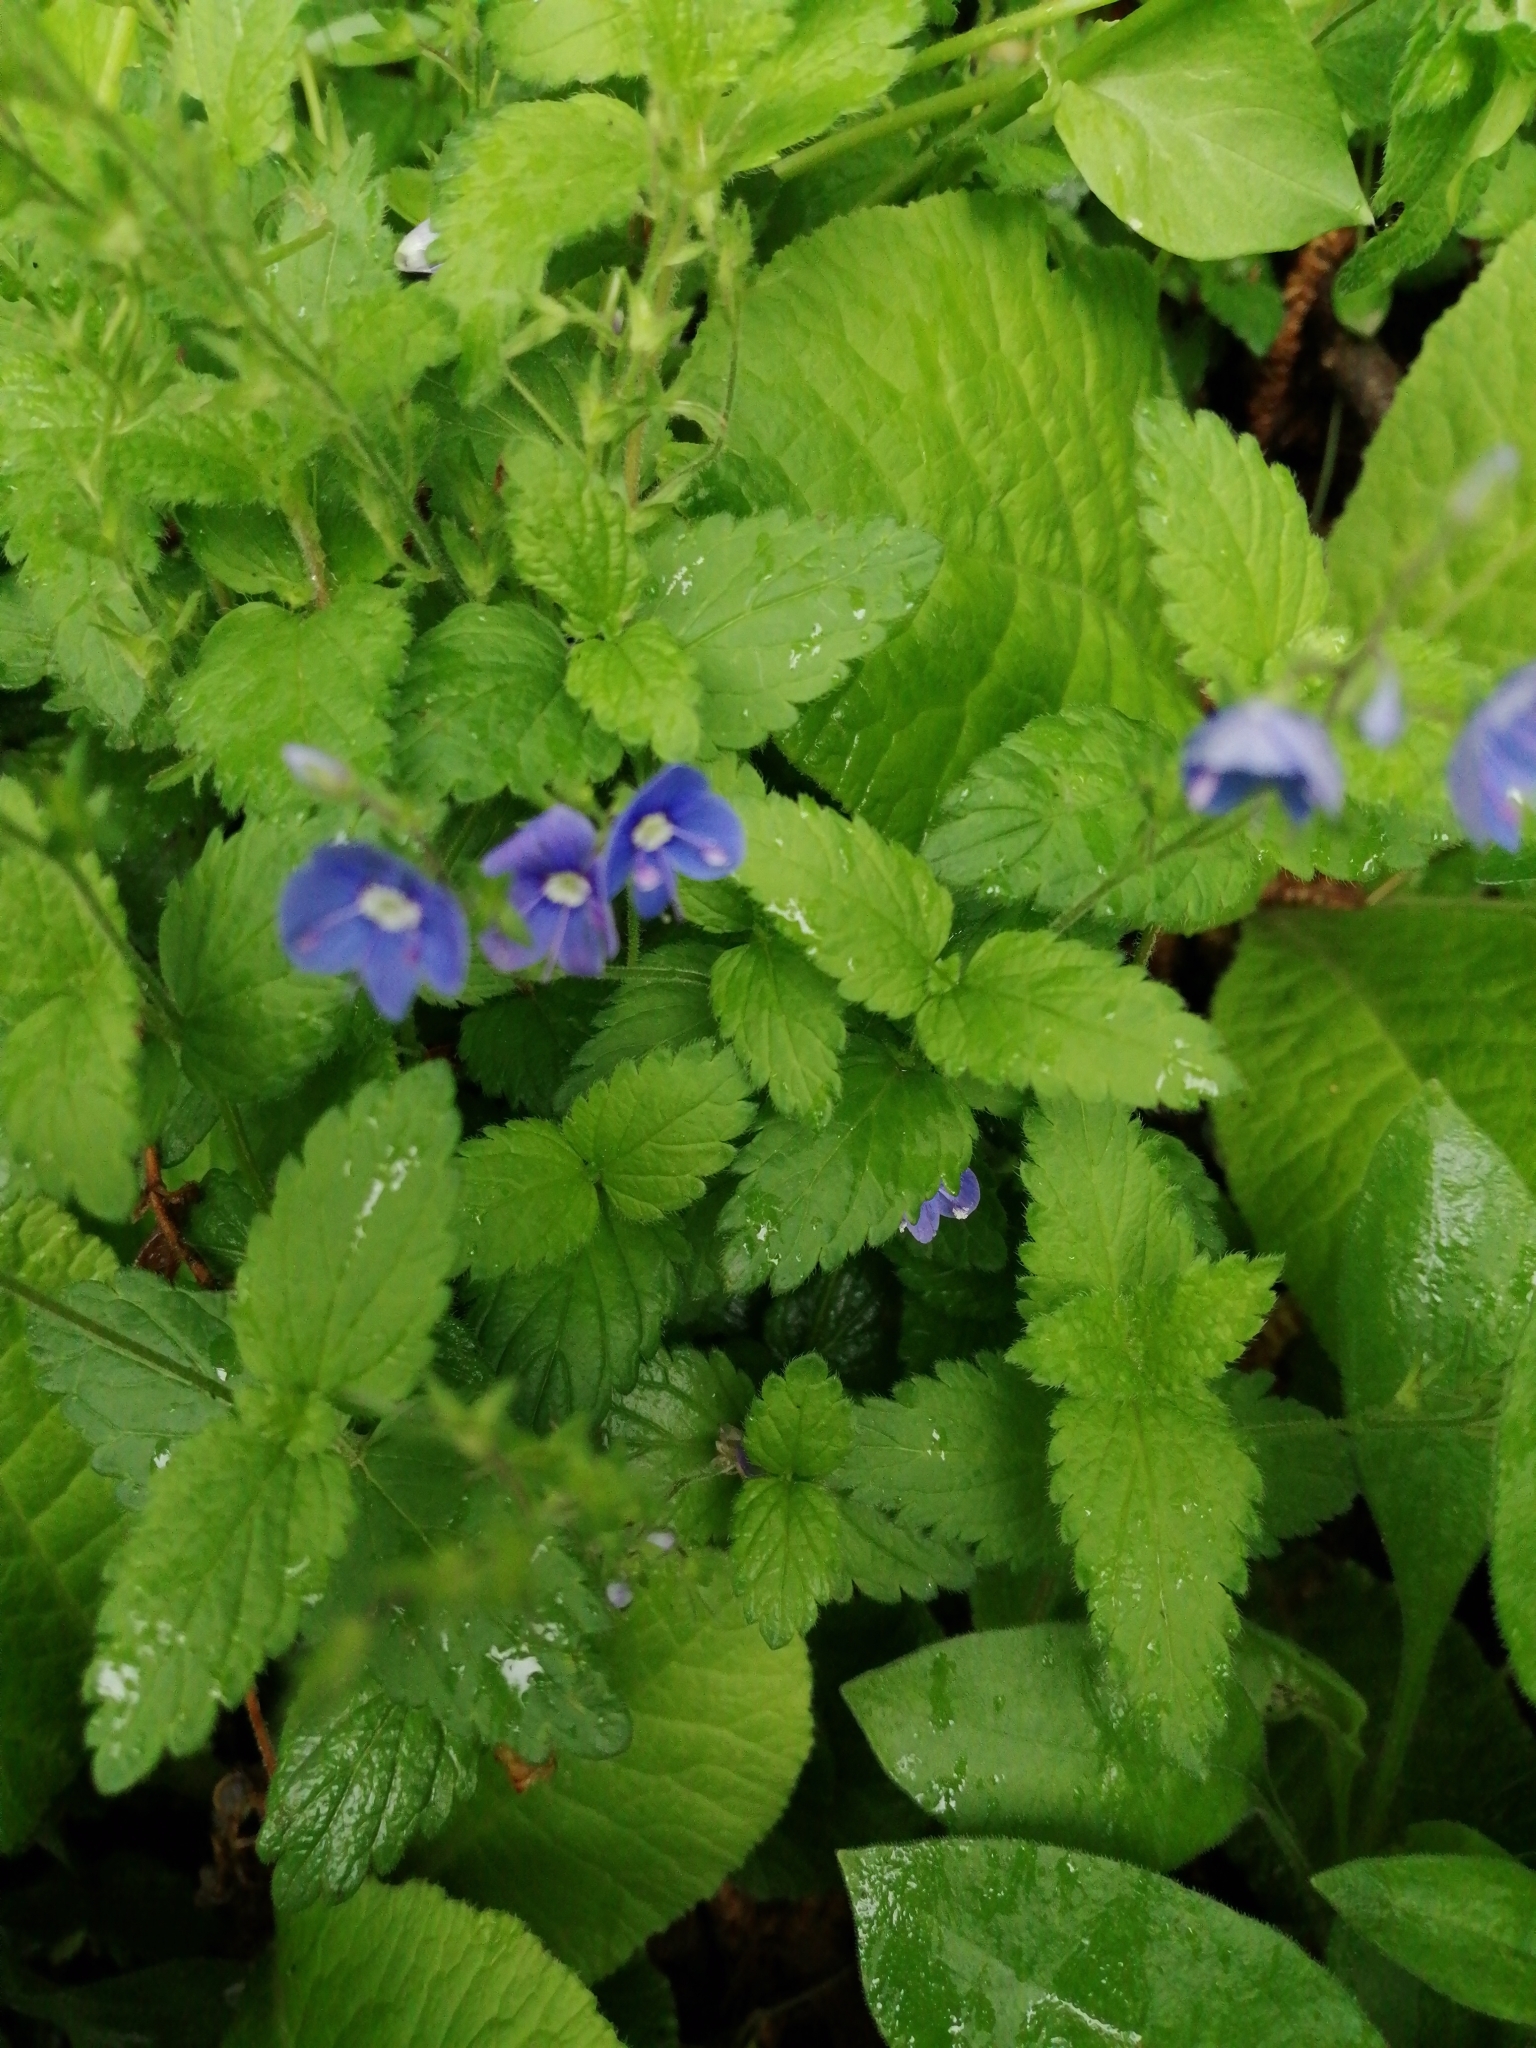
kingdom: Plantae
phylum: Tracheophyta
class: Magnoliopsida
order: Lamiales
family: Plantaginaceae
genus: Veronica
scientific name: Veronica chamaedrys
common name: Germander speedwell
